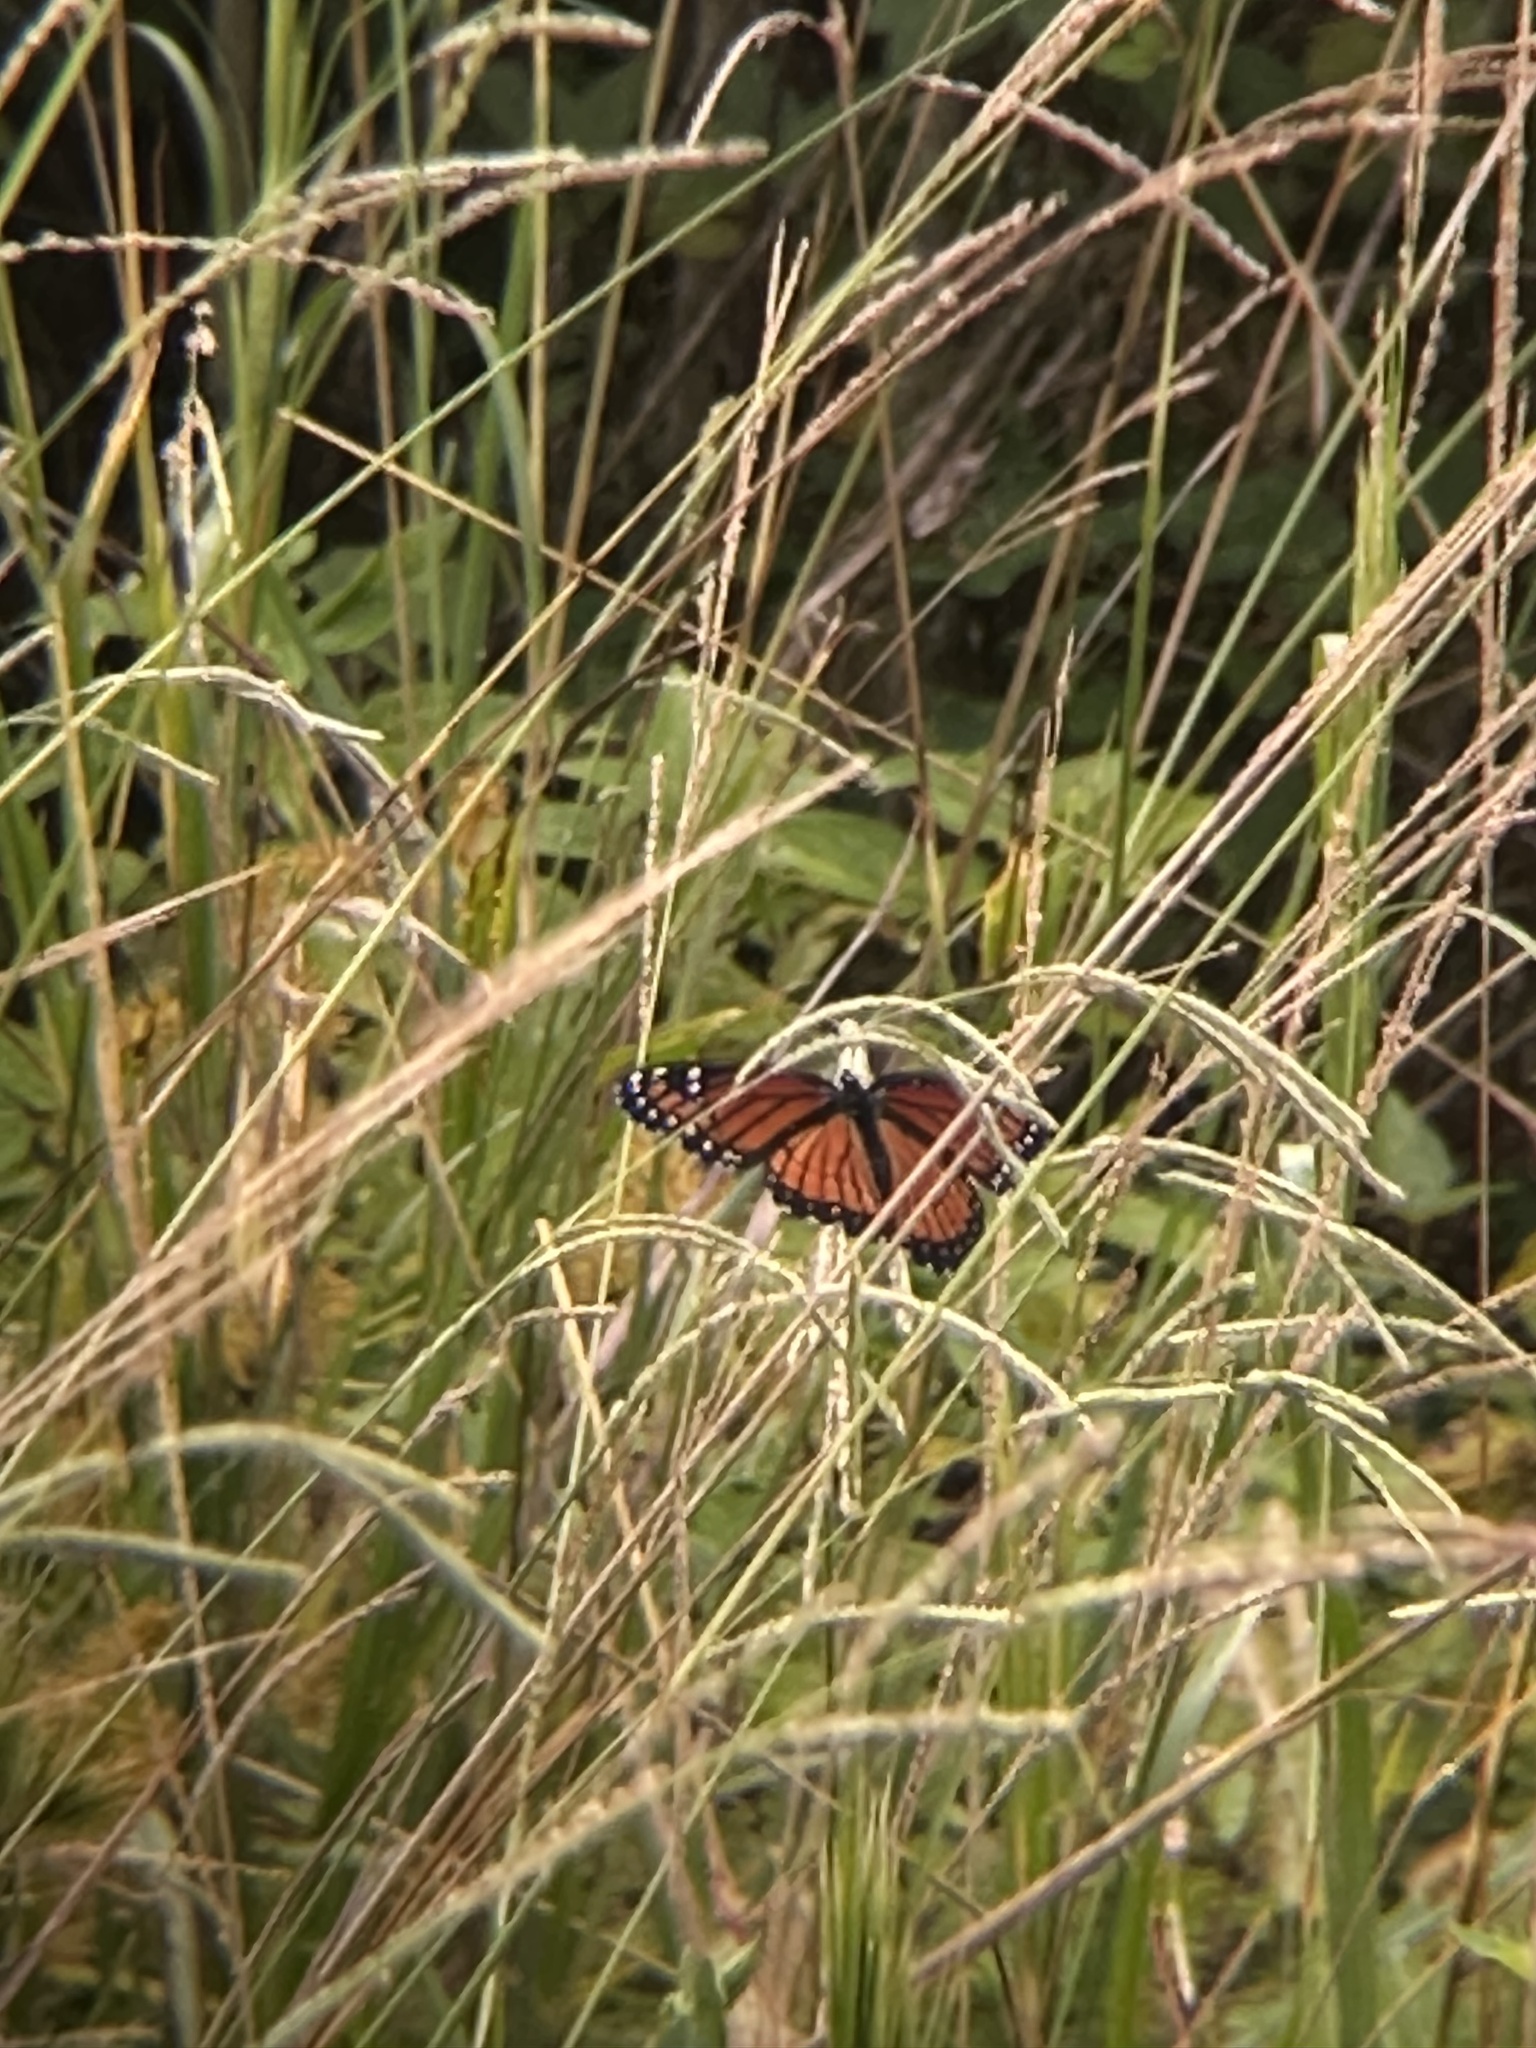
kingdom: Animalia
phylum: Arthropoda
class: Insecta
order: Lepidoptera
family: Nymphalidae
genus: Limenitis
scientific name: Limenitis archippus
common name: Viceroy
